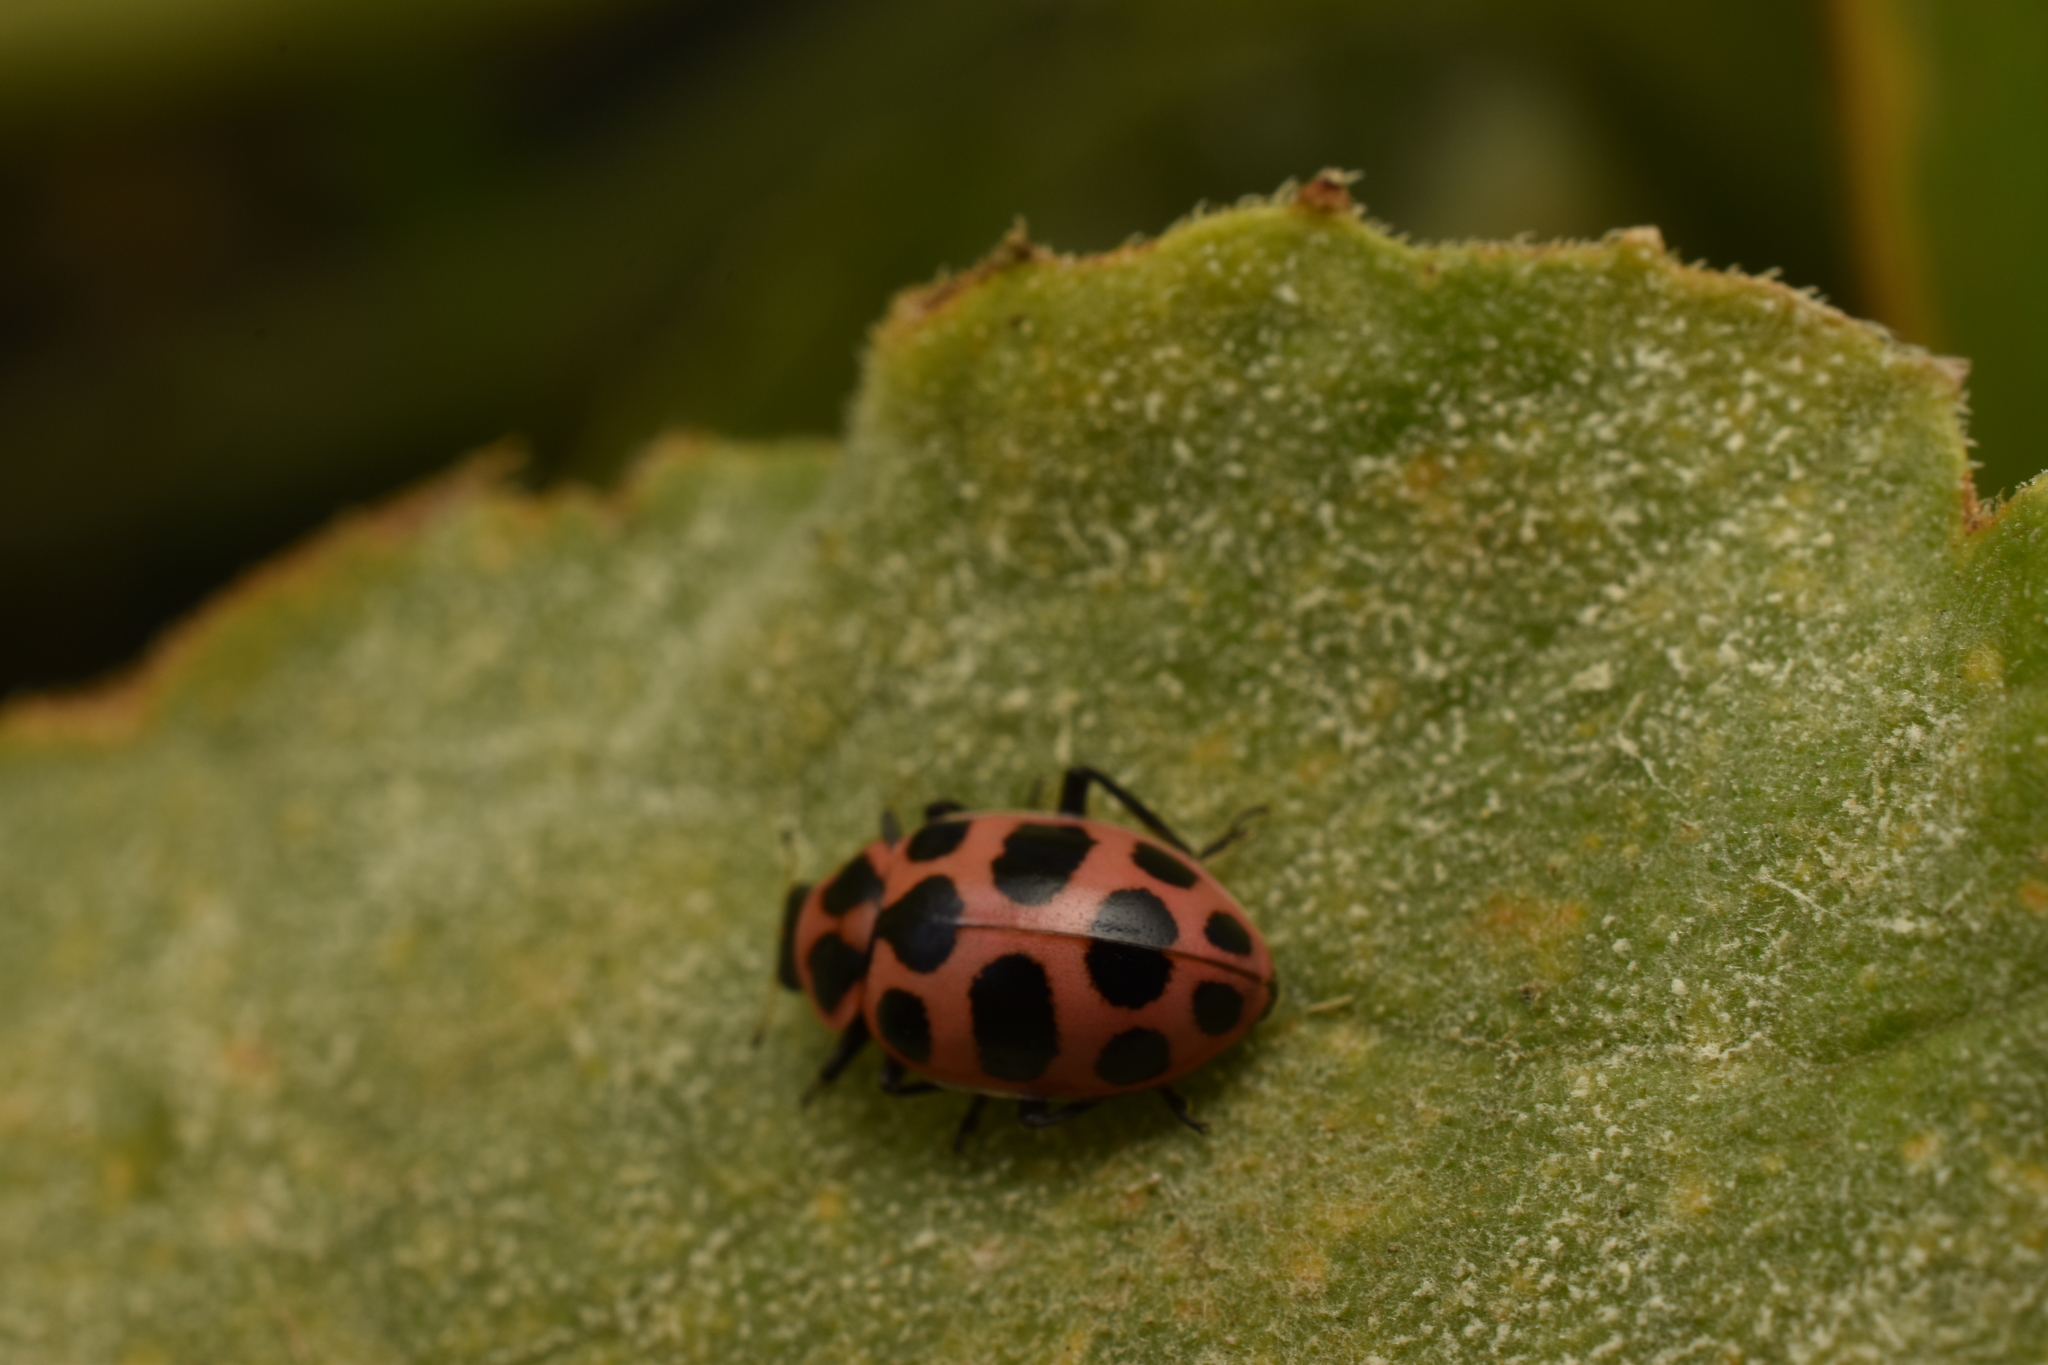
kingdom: Animalia
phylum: Arthropoda
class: Insecta
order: Coleoptera
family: Coccinellidae
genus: Coleomegilla
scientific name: Coleomegilla maculata
